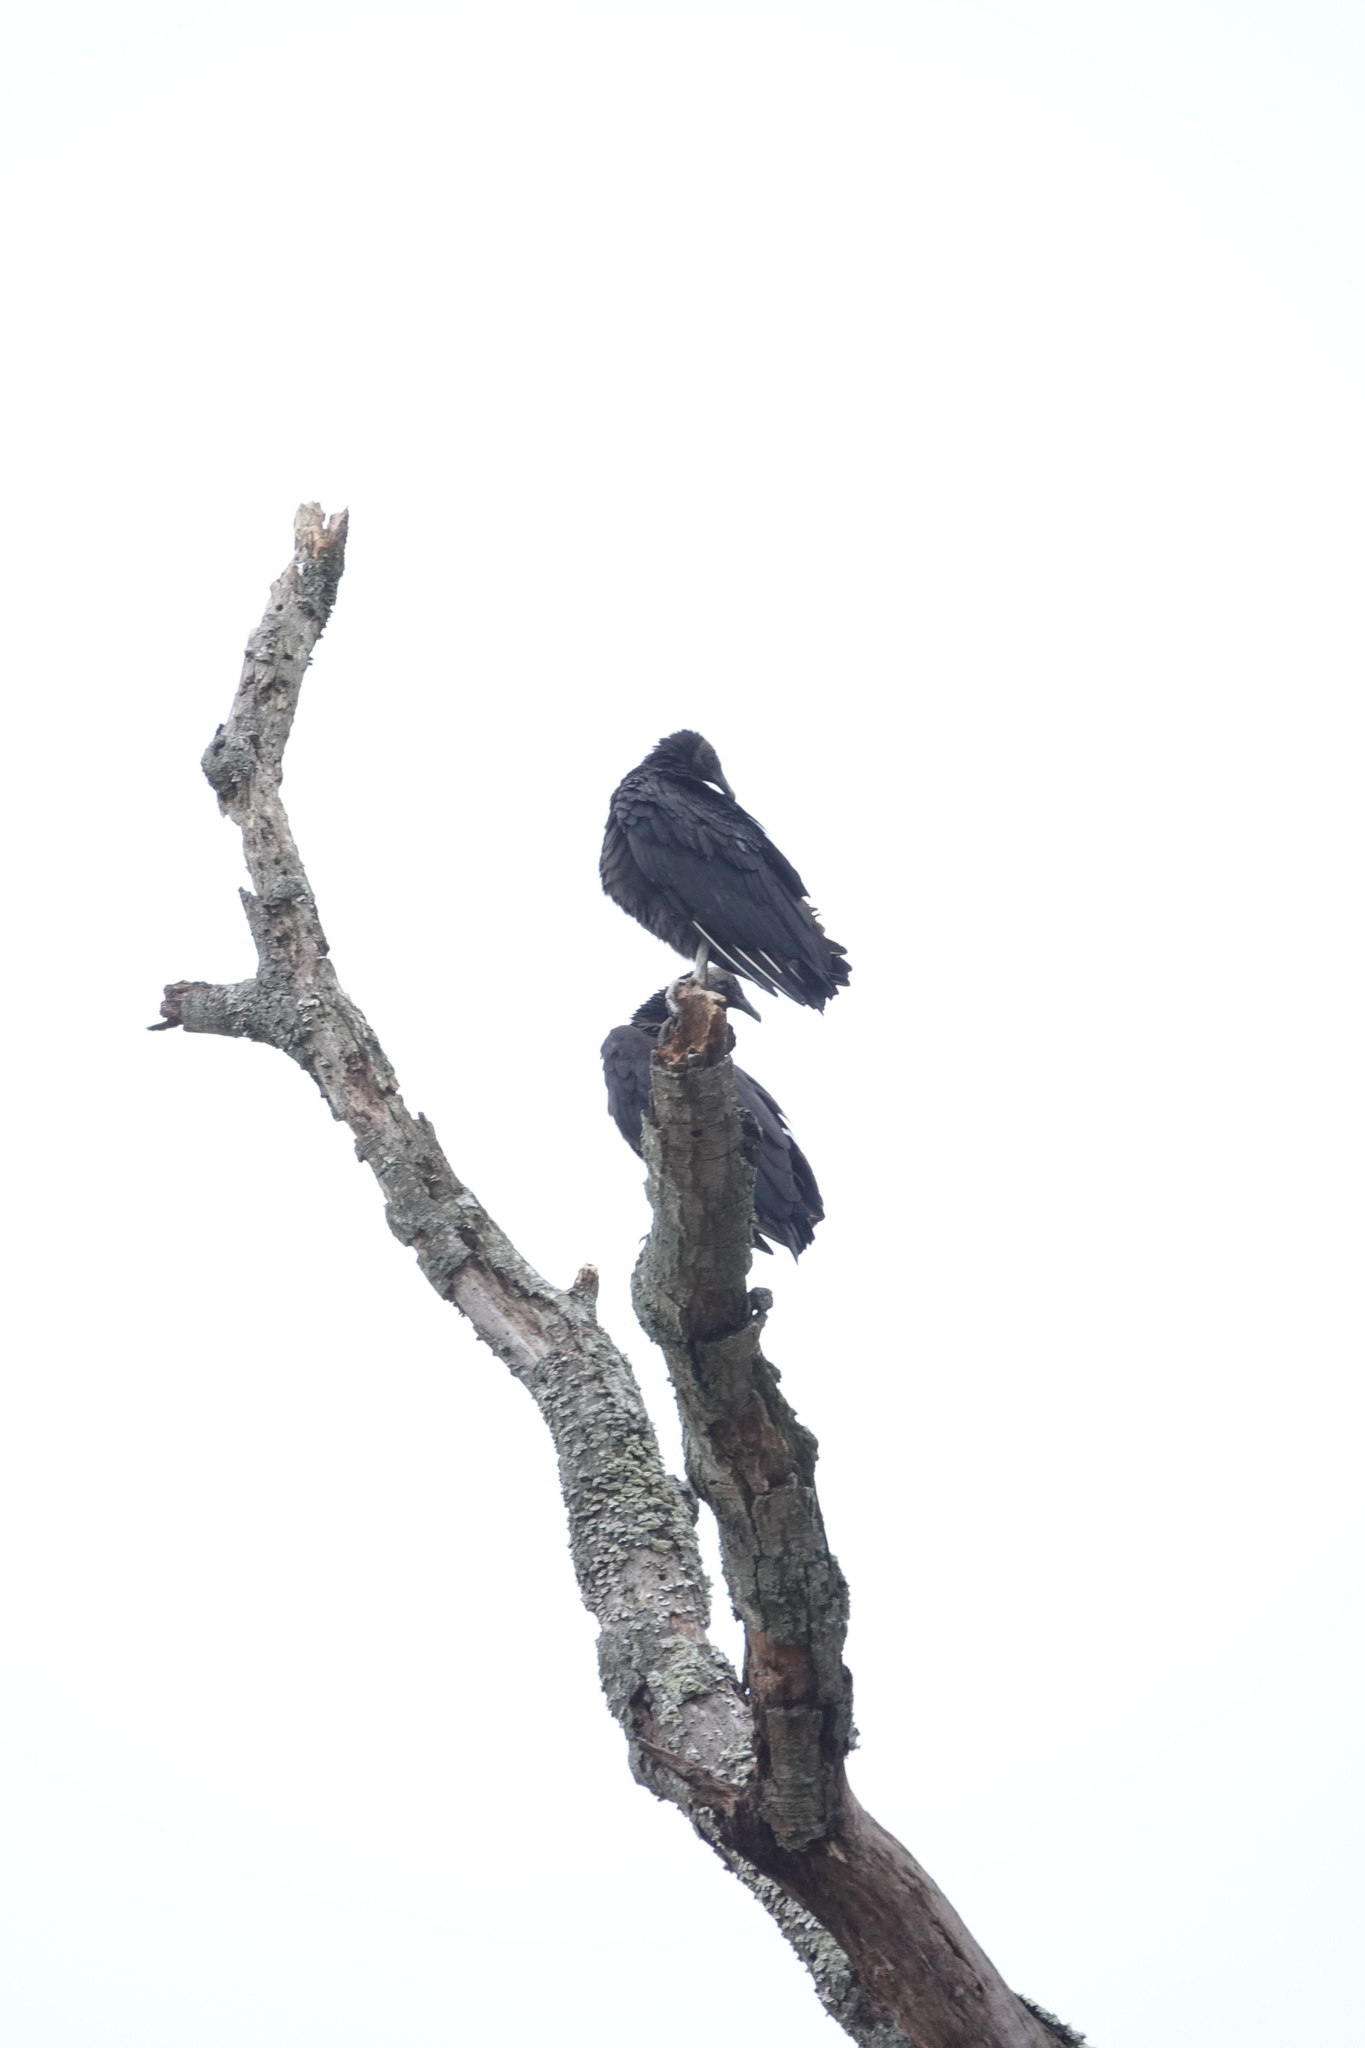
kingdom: Animalia
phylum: Chordata
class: Aves
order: Accipitriformes
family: Cathartidae
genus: Coragyps
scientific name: Coragyps atratus
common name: Black vulture
